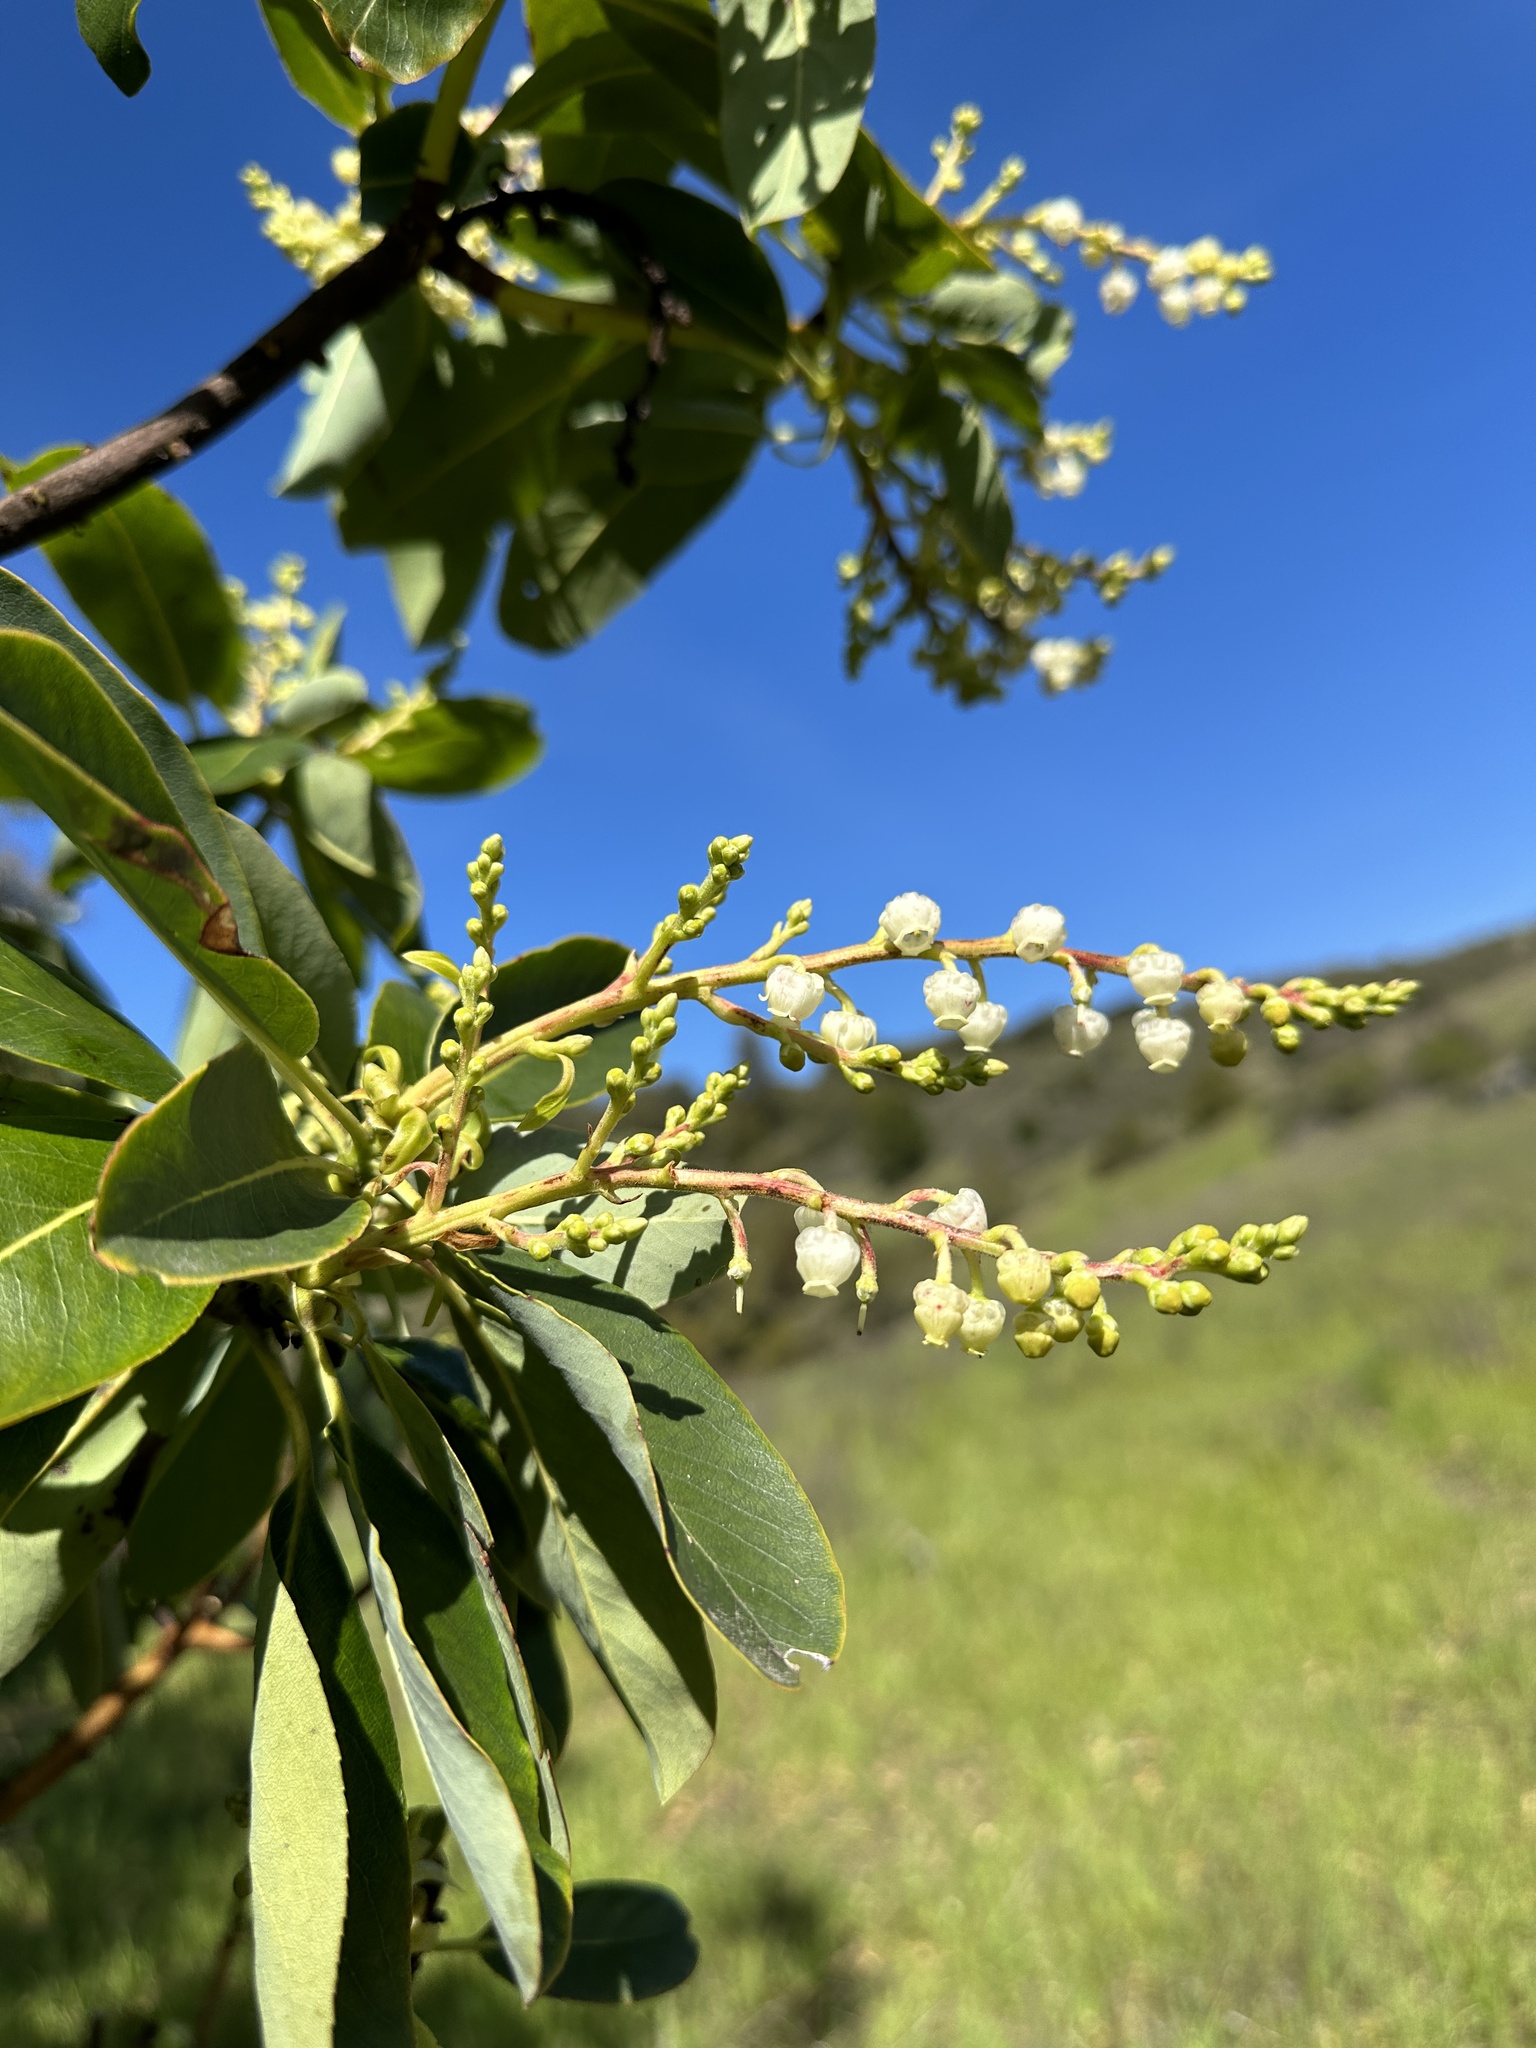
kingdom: Plantae
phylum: Tracheophyta
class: Magnoliopsida
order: Ericales
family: Ericaceae
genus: Arbutus
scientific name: Arbutus menziesii
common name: Pacific madrone
